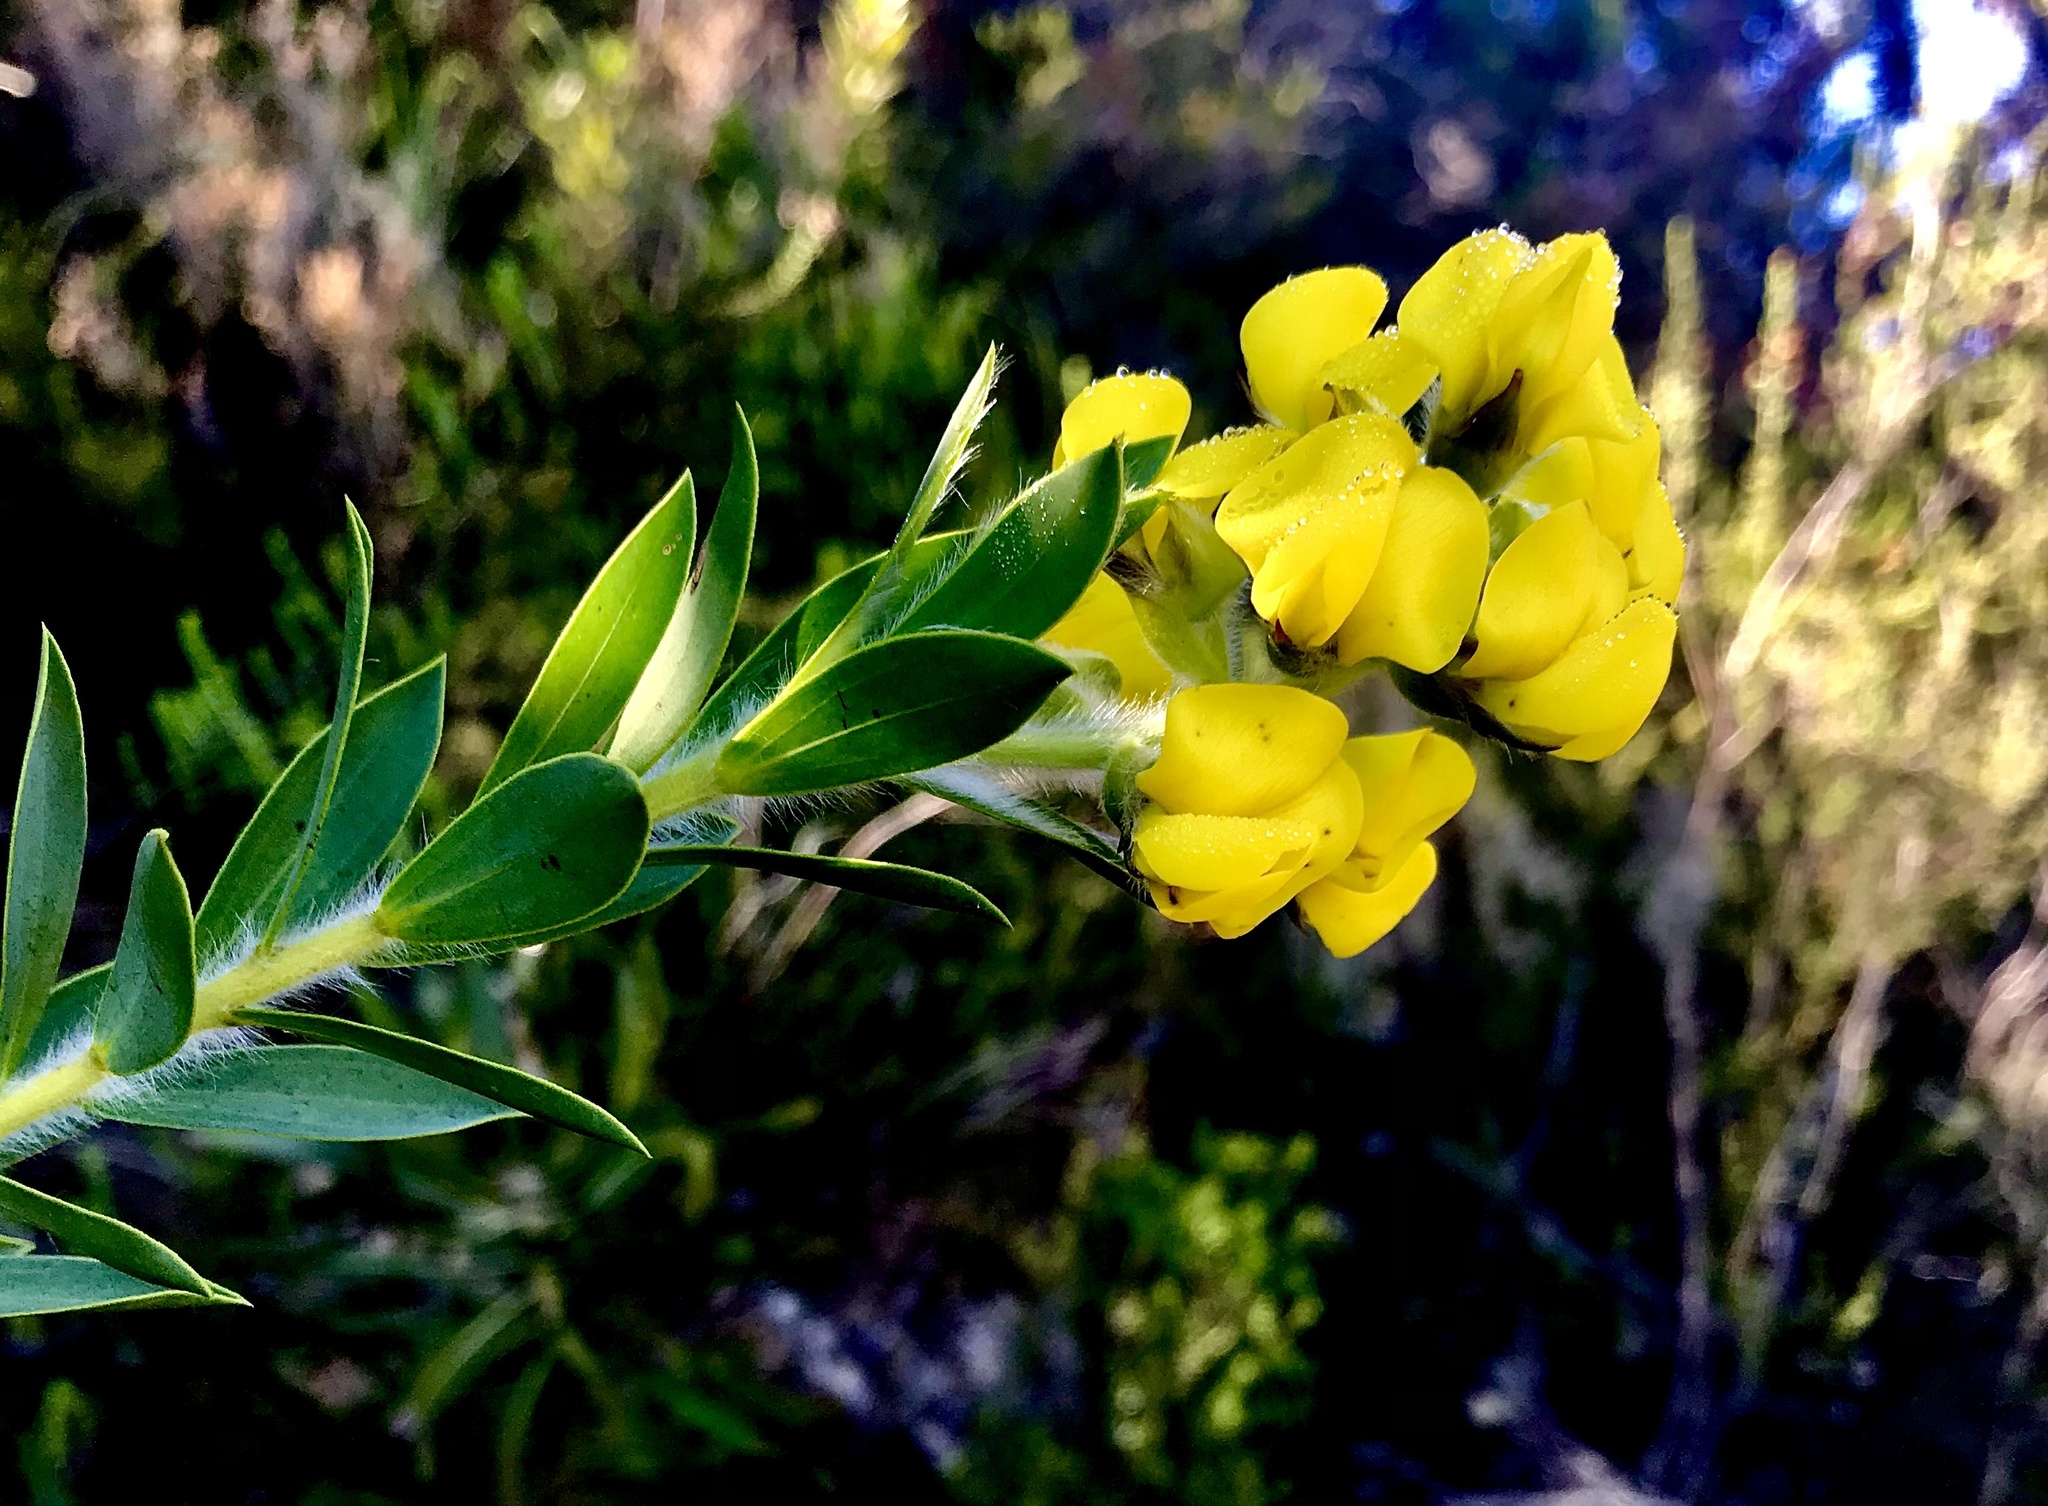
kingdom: Plantae
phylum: Tracheophyta
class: Magnoliopsida
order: Fabales
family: Fabaceae
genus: Liparia
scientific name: Liparia hirsuta
